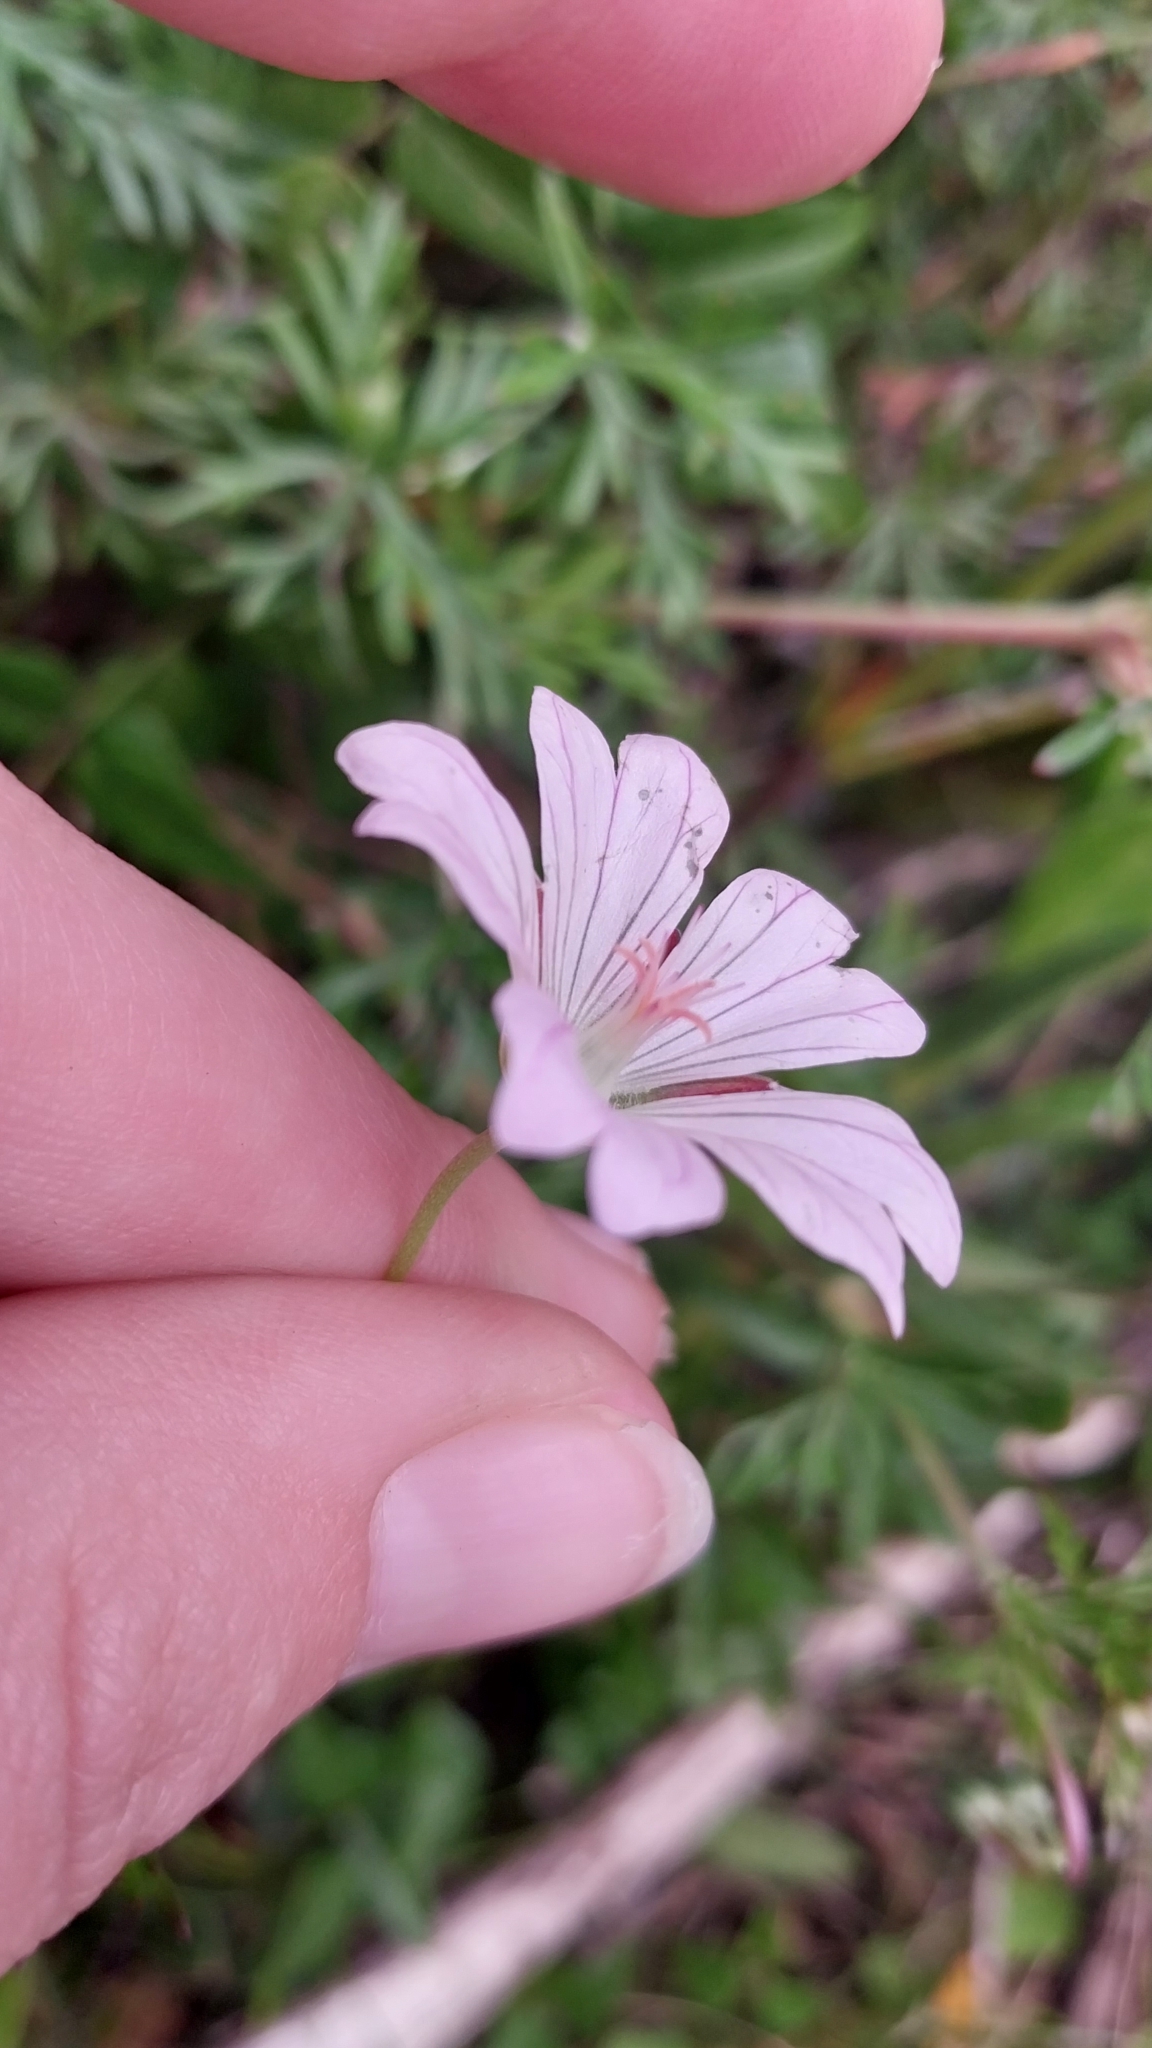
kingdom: Plantae
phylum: Tracheophyta
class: Magnoliopsida
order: Geraniales
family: Geraniaceae
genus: Geranium
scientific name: Geranium incanum
